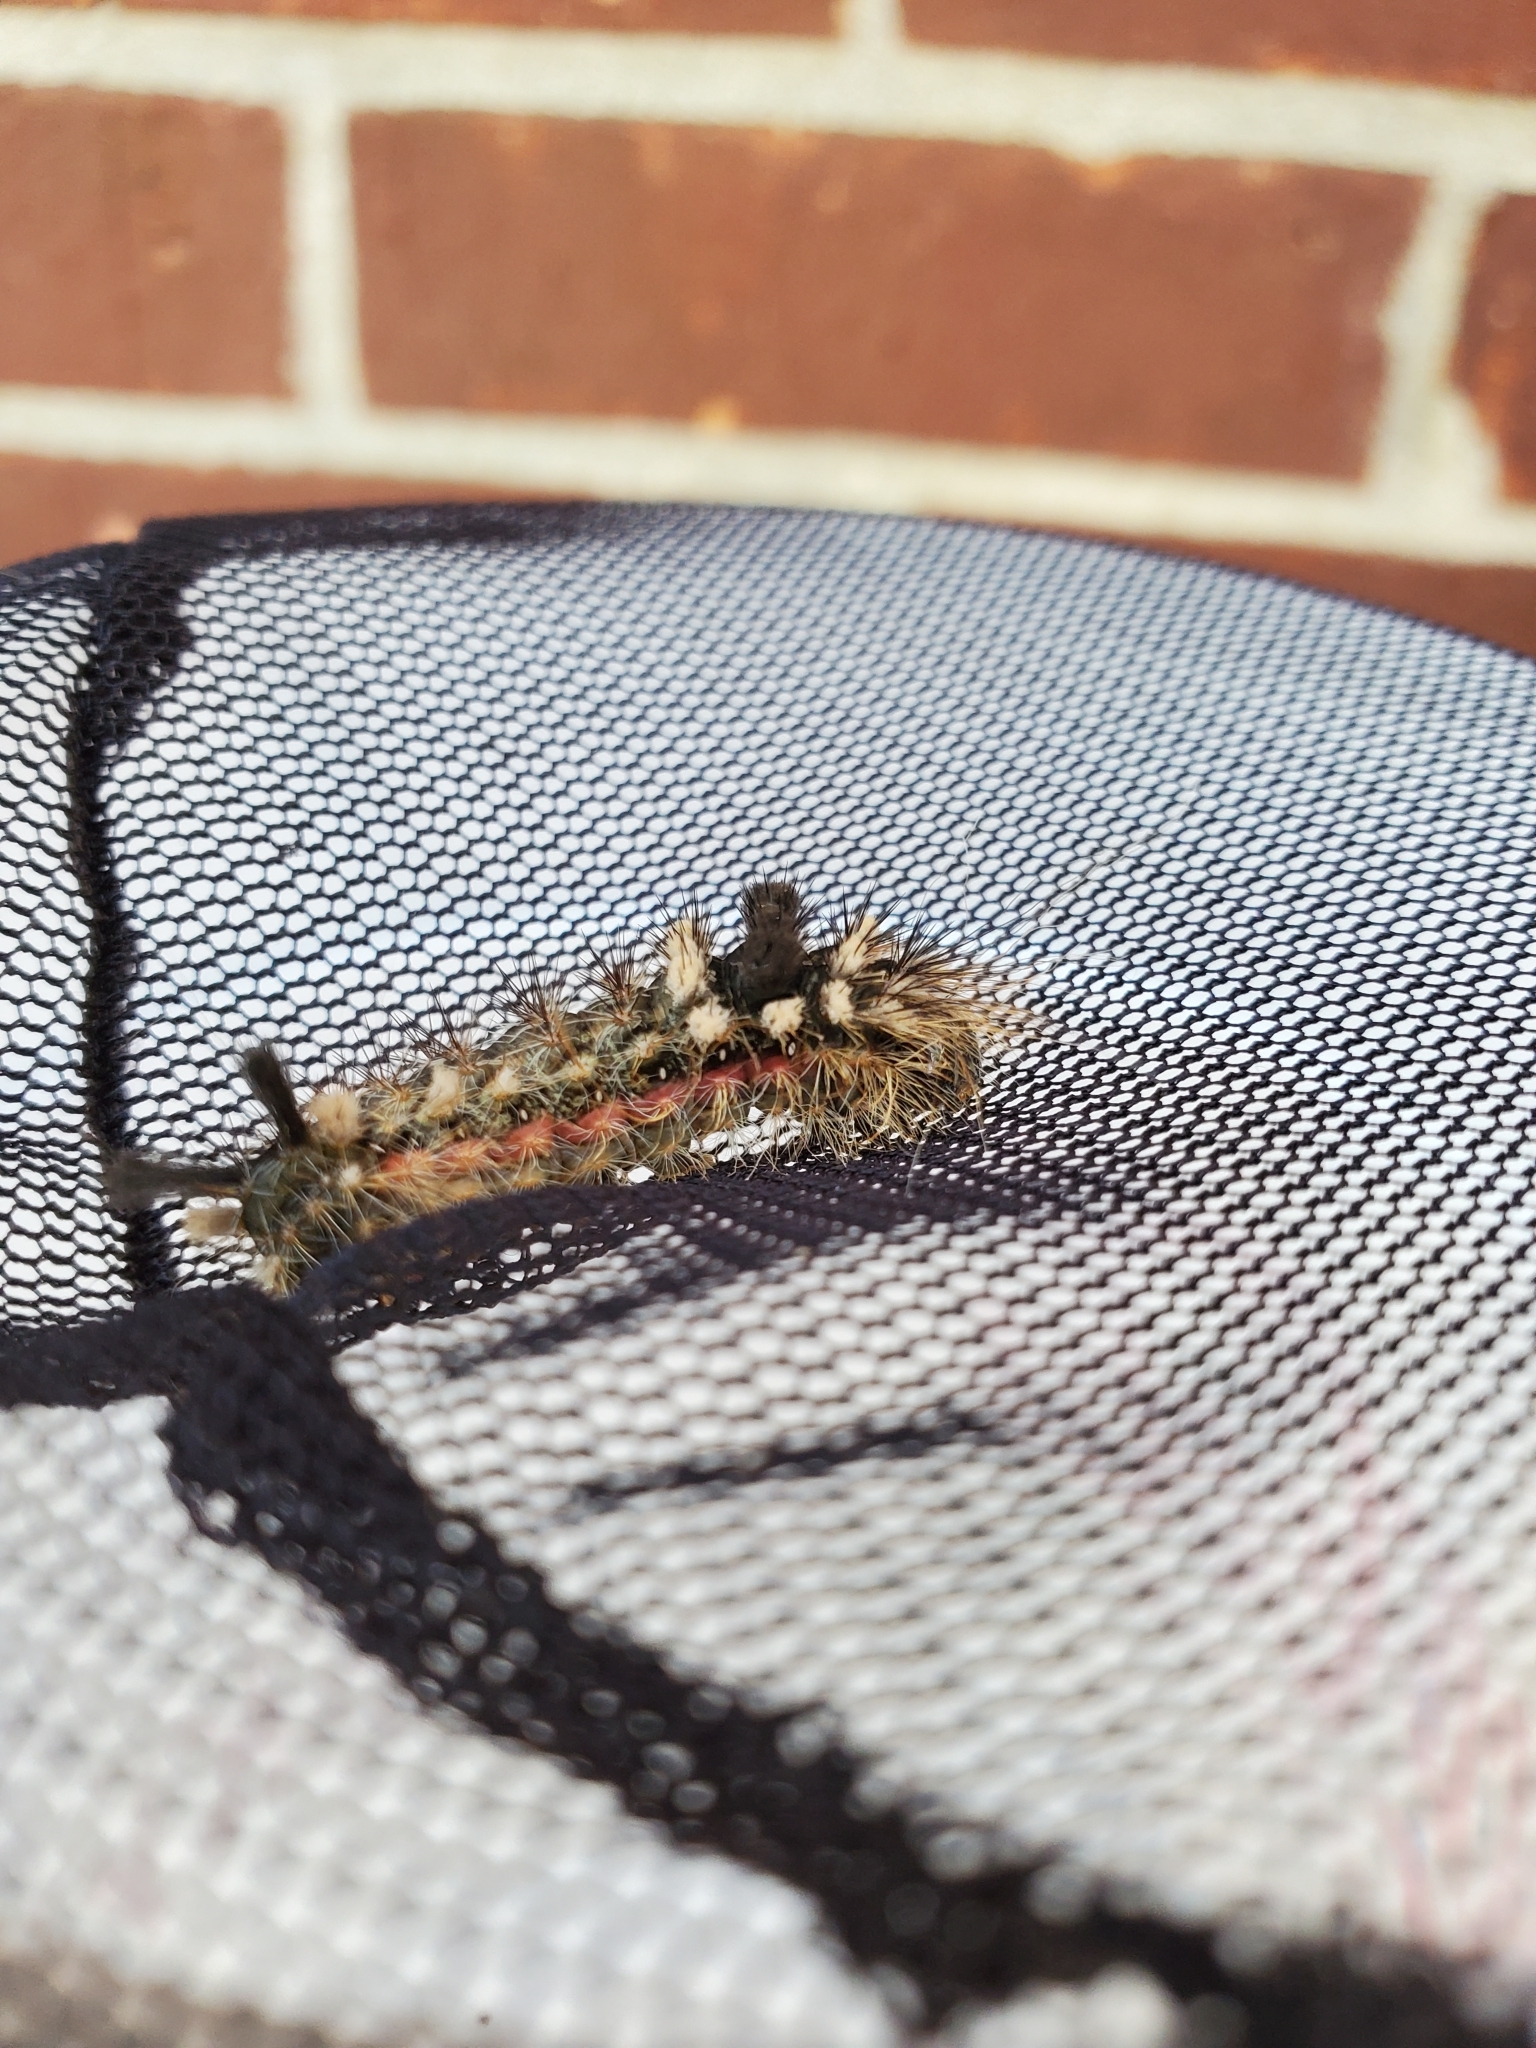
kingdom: Animalia
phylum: Arthropoda
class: Insecta
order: Lepidoptera
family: Noctuidae
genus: Acronicta
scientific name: Acronicta impleta
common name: Powdered dagger
